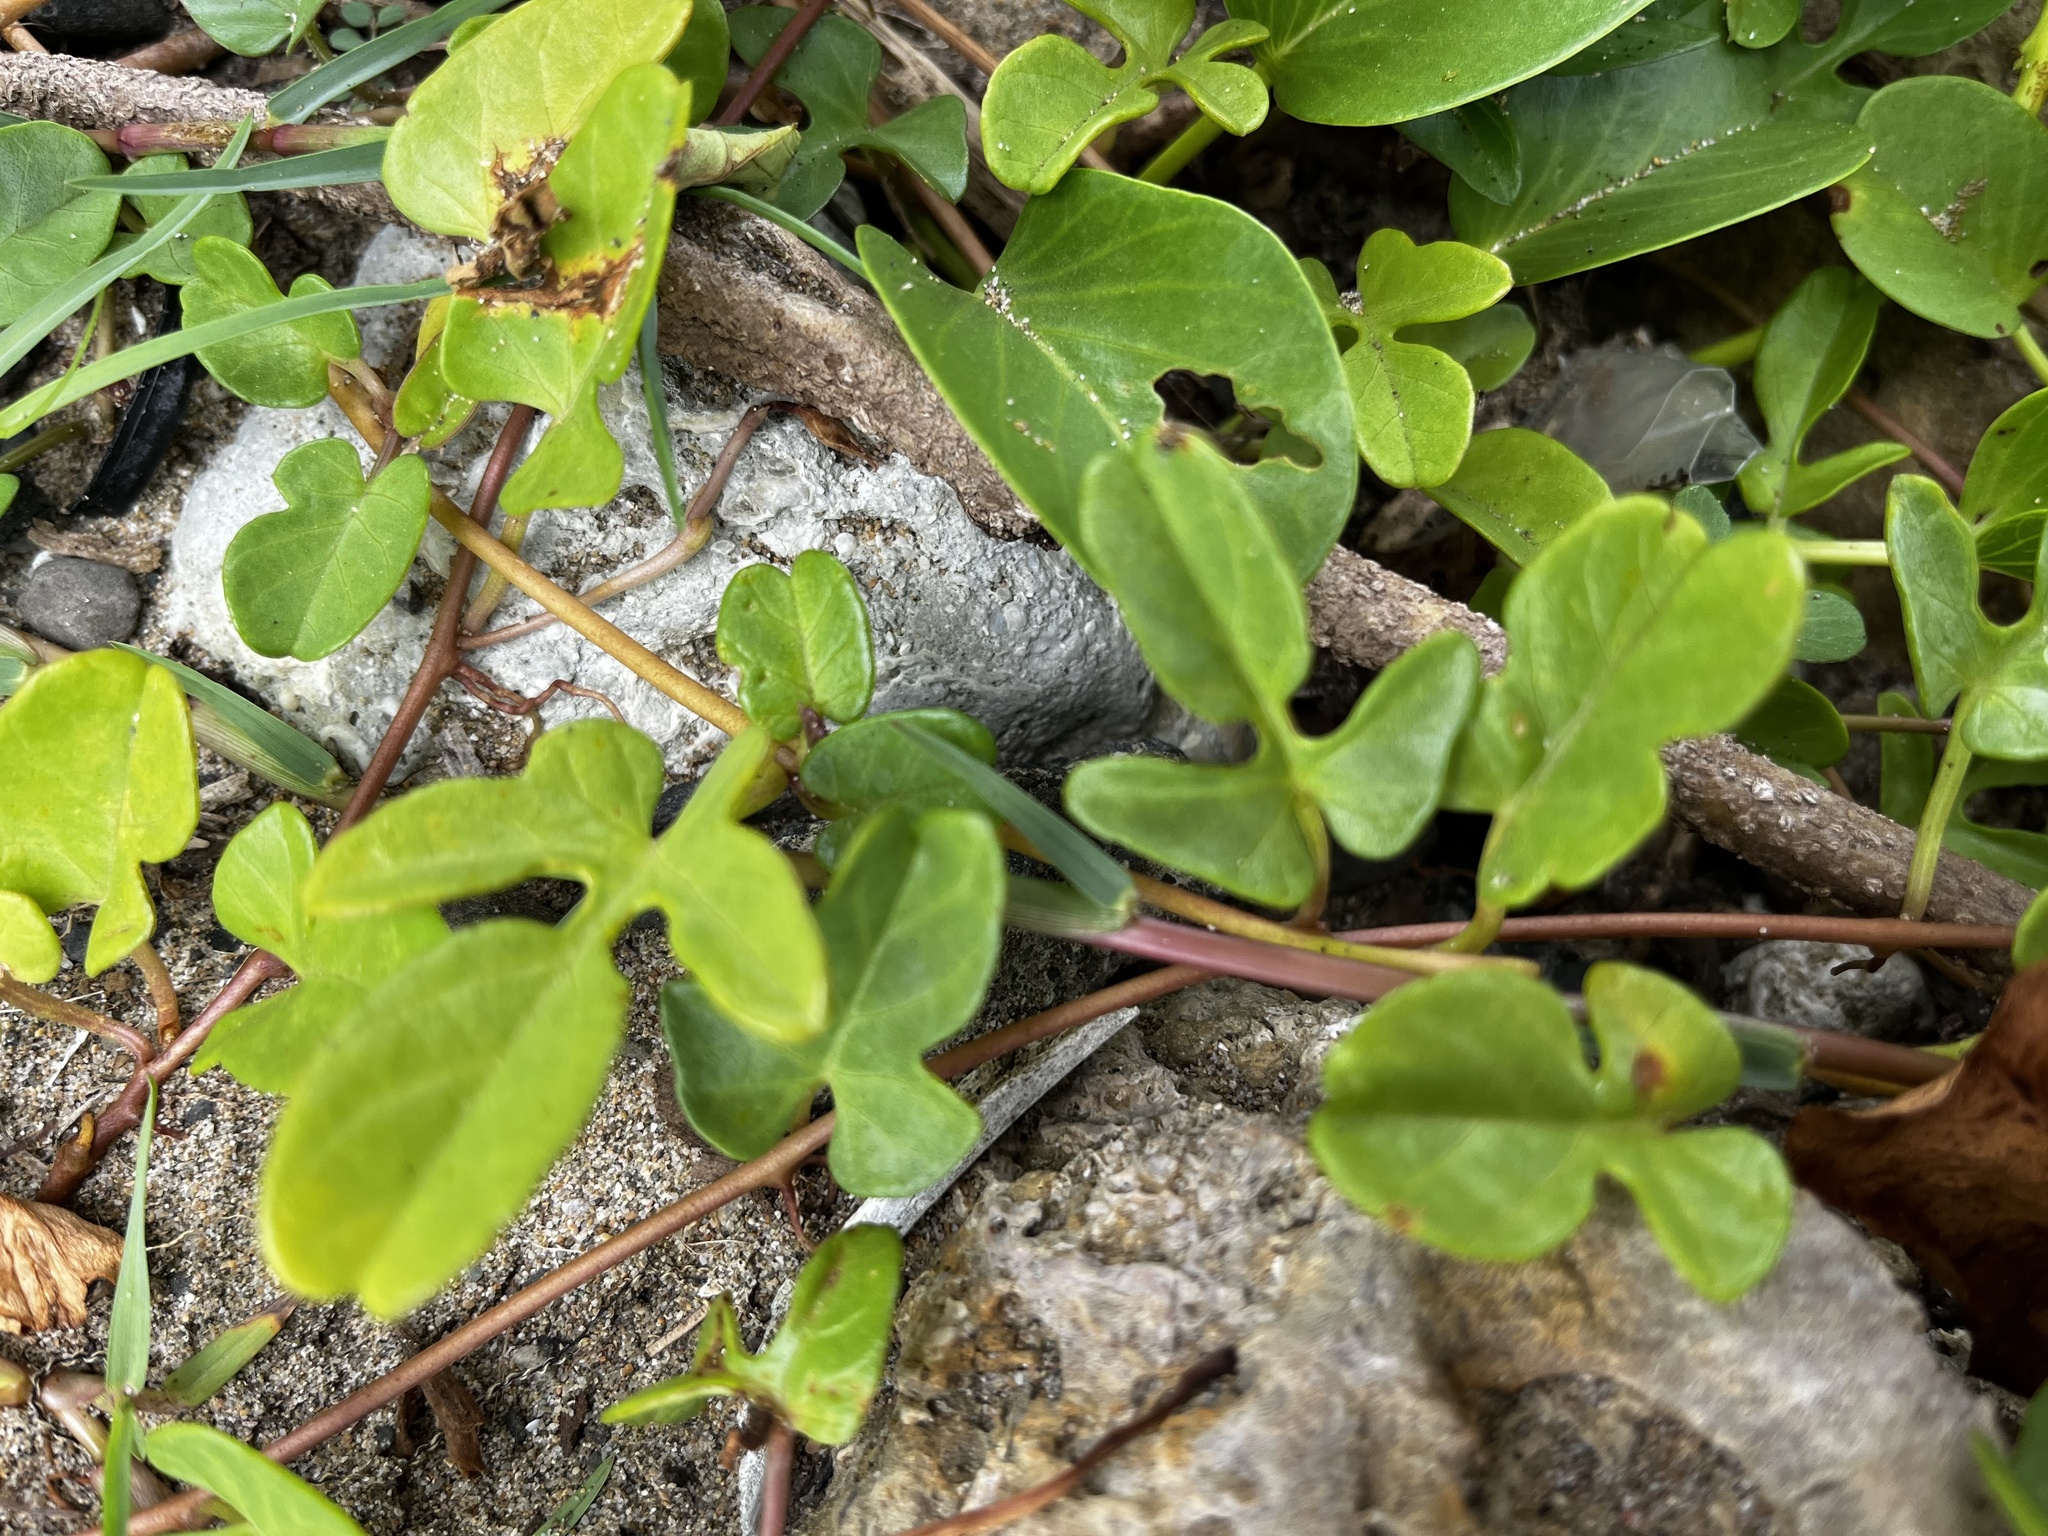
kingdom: Plantae
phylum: Tracheophyta
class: Magnoliopsida
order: Solanales
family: Convolvulaceae
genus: Ipomoea
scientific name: Ipomoea imperati
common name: Fiddle-leaf morning-glory
